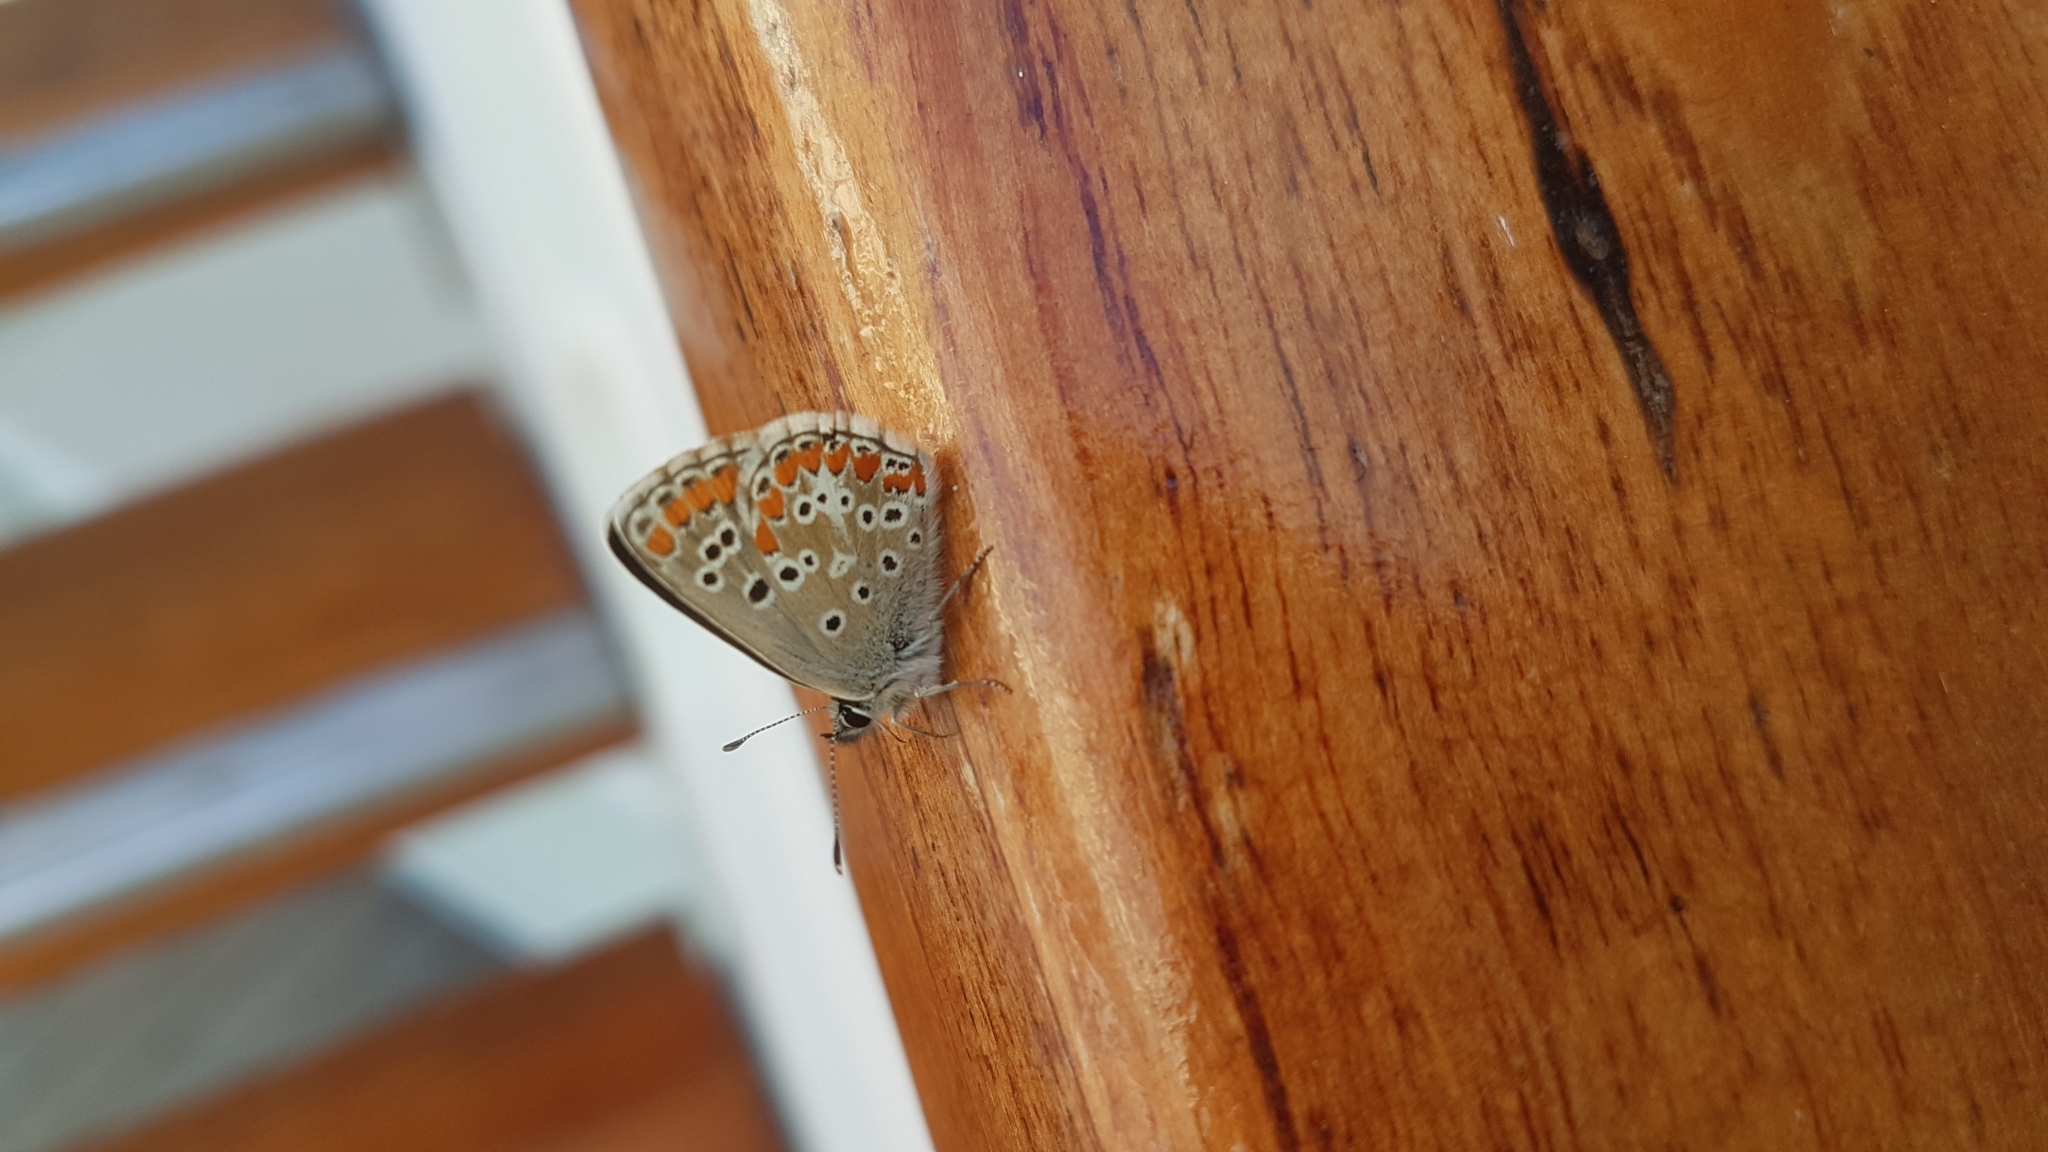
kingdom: Animalia
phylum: Arthropoda
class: Insecta
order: Lepidoptera
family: Lycaenidae
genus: Aricia
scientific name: Aricia cramera
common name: Eschscholtz´s brown  argus
